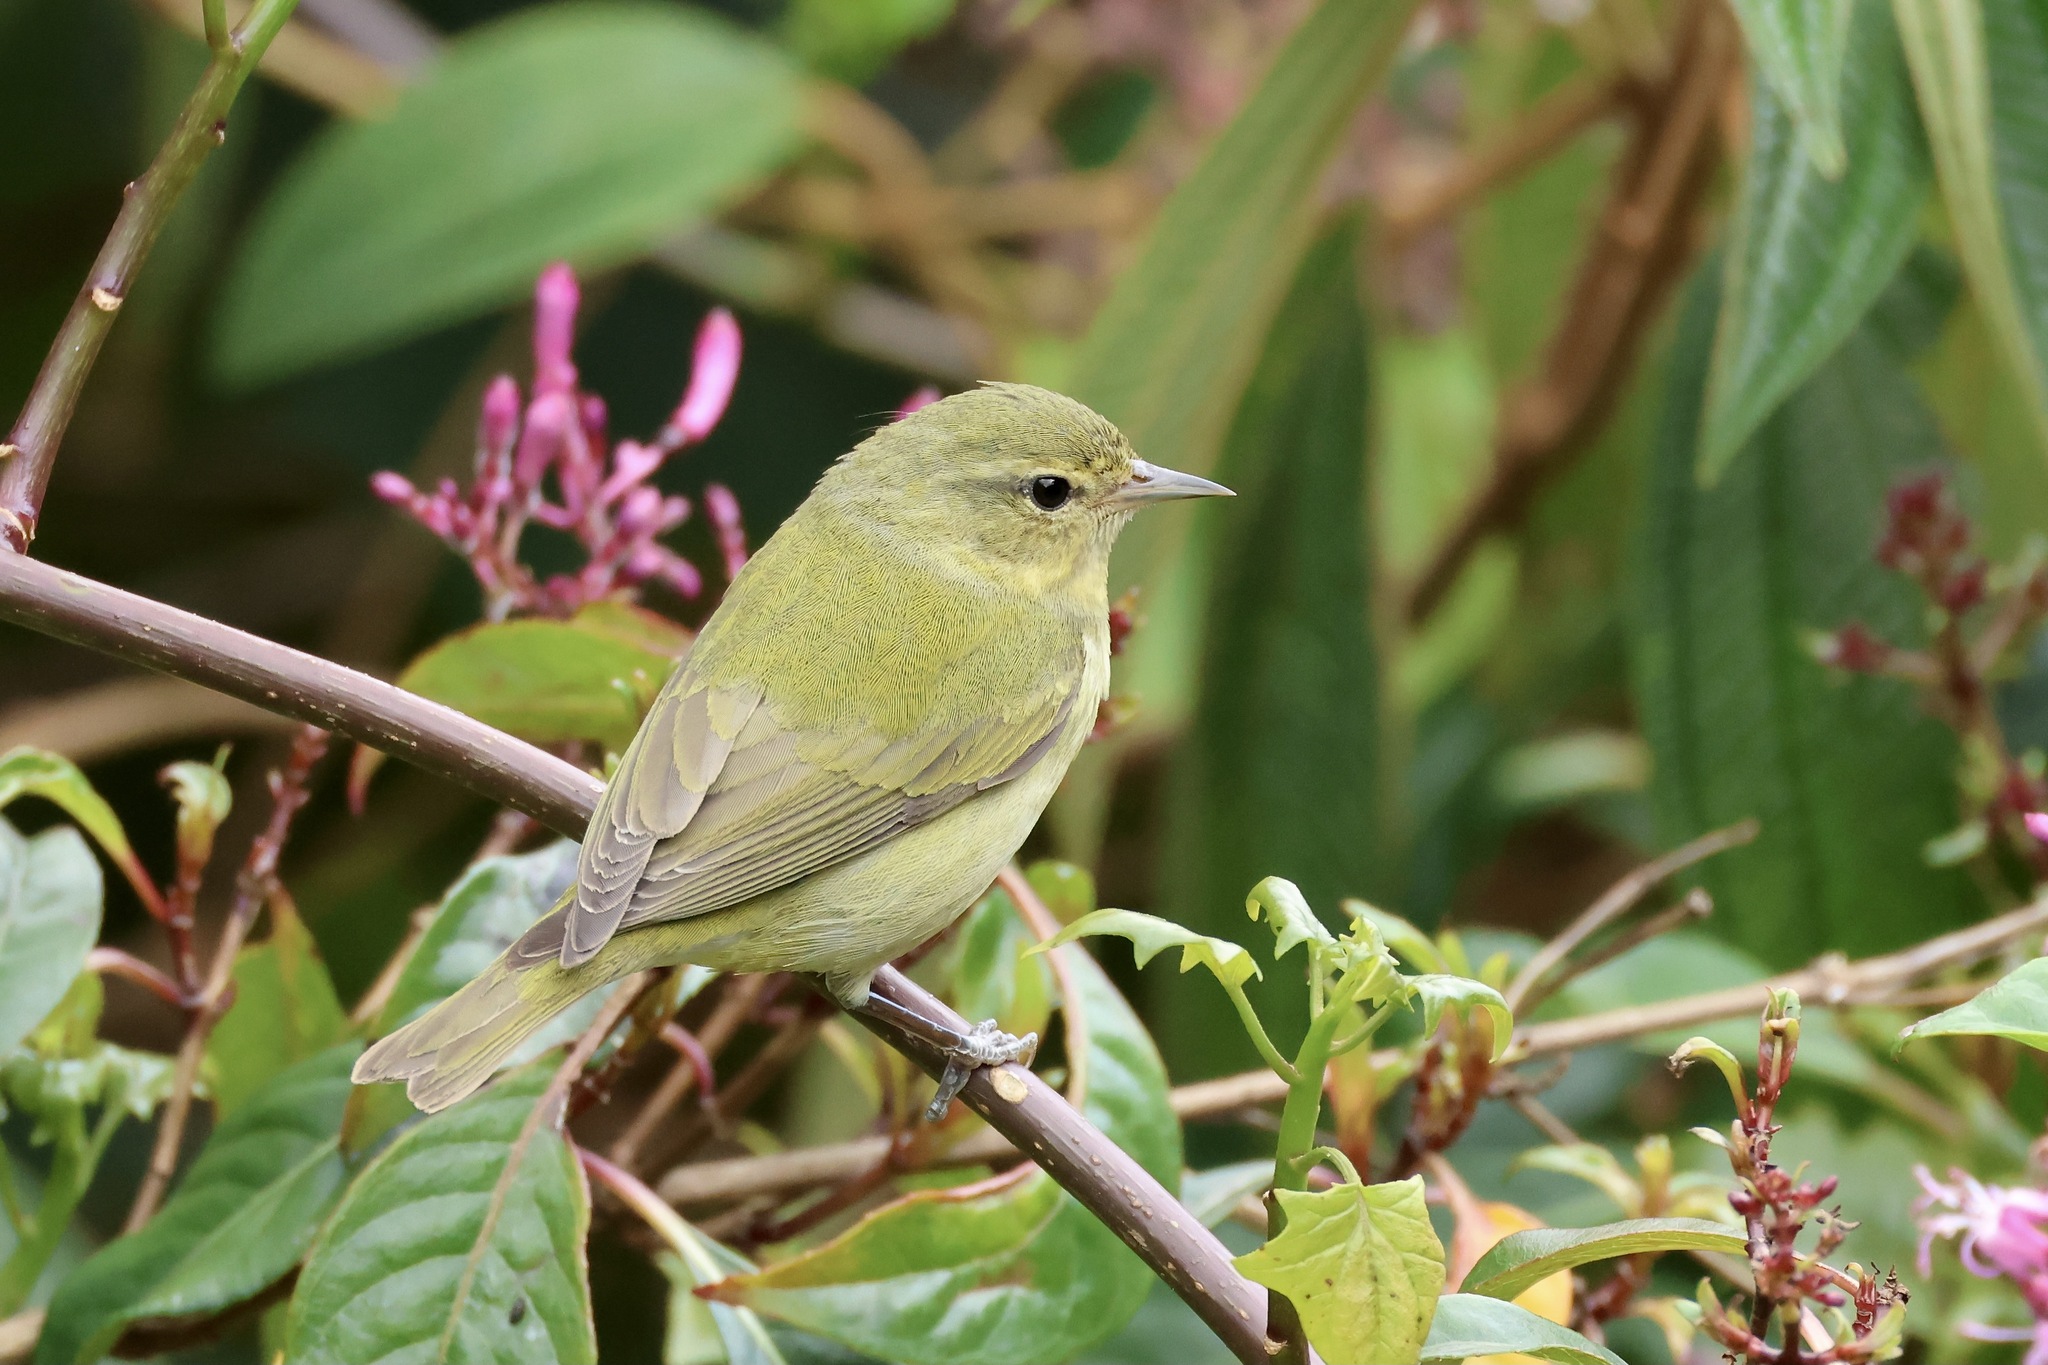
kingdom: Animalia
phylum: Chordata
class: Aves
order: Passeriformes
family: Parulidae
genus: Leiothlypis
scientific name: Leiothlypis peregrina
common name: Tennessee warbler
